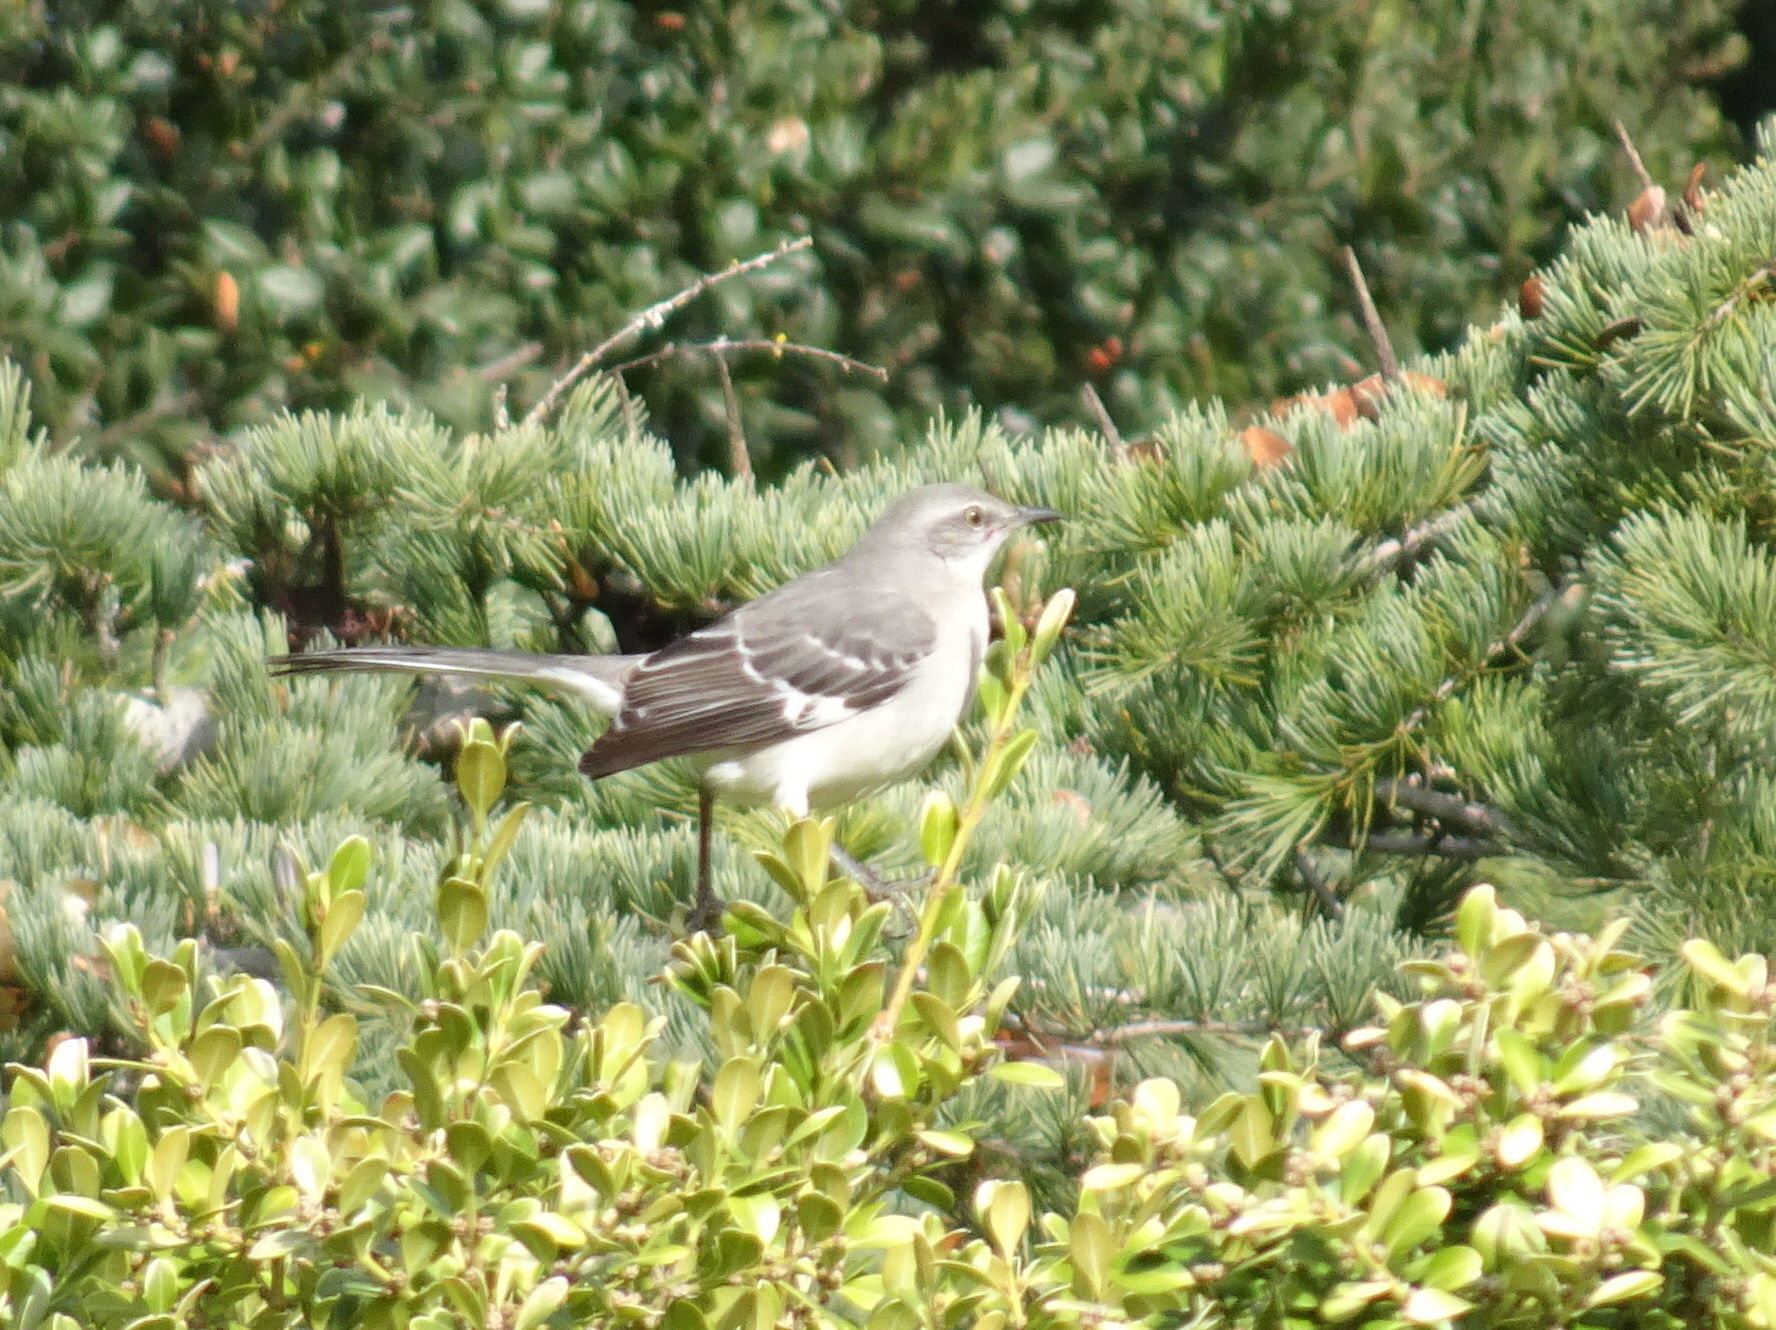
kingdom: Animalia
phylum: Chordata
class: Aves
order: Passeriformes
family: Mimidae
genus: Mimus
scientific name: Mimus polyglottos
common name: Northern mockingbird
